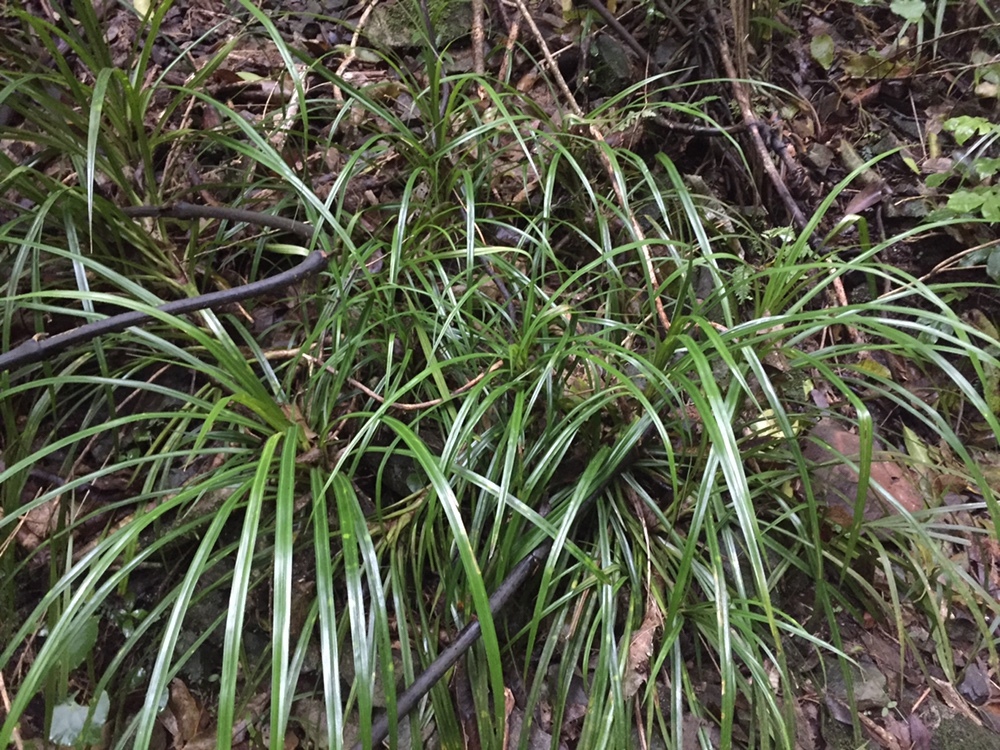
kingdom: Plantae
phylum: Tracheophyta
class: Liliopsida
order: Pandanales
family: Pandanaceae
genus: Freycinetia
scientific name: Freycinetia banksii
